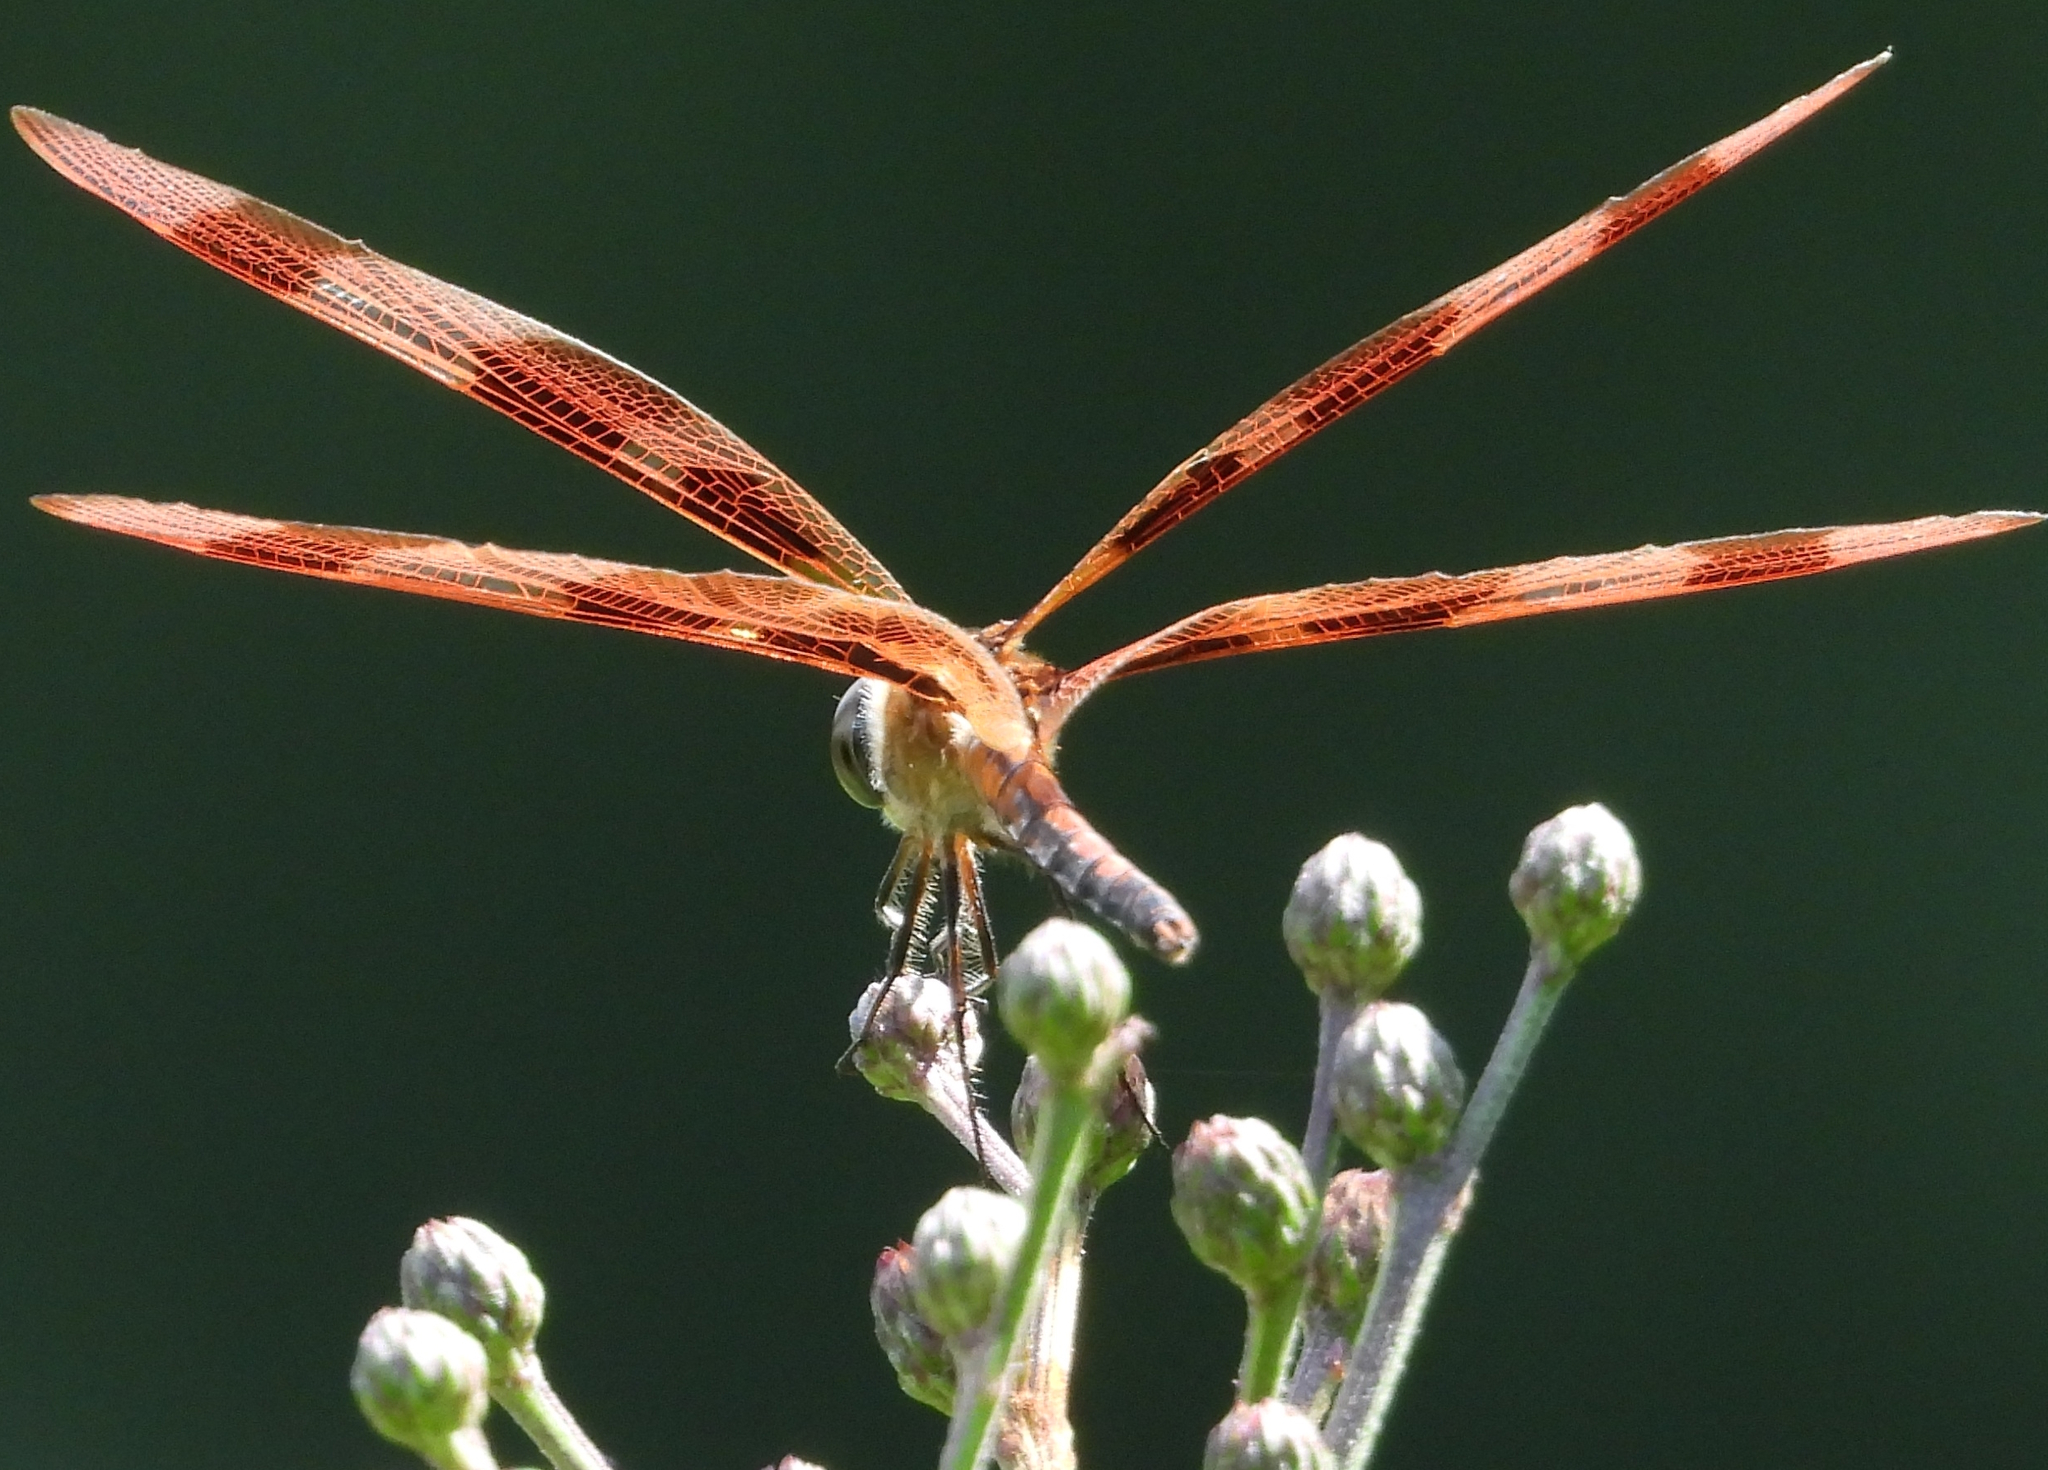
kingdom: Animalia
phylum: Arthropoda
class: Insecta
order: Odonata
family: Libellulidae
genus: Celithemis
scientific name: Celithemis eponina
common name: Halloween pennant
